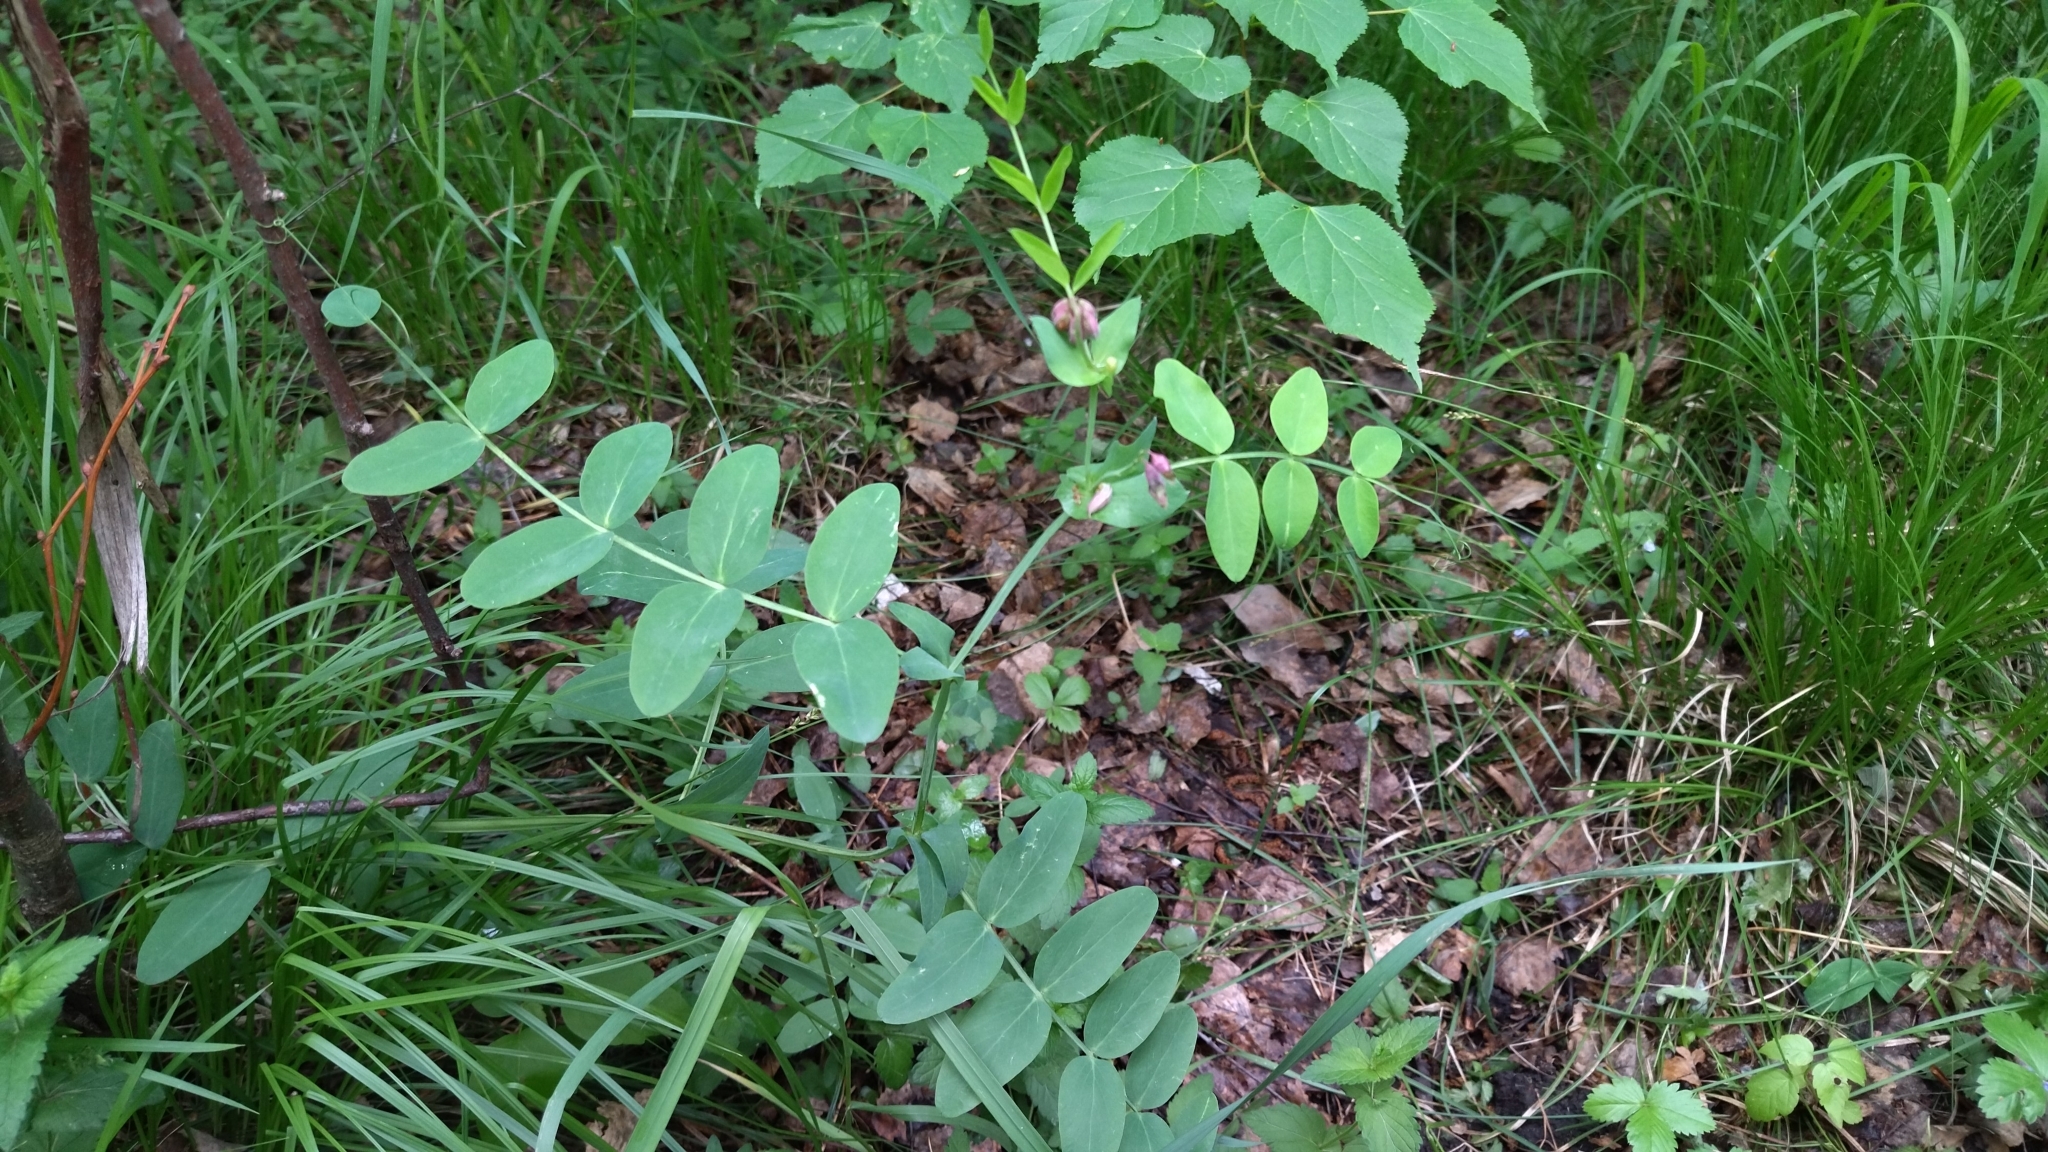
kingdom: Plantae
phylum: Tracheophyta
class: Magnoliopsida
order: Fabales
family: Fabaceae
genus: Lathyrus
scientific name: Lathyrus pisiformis
